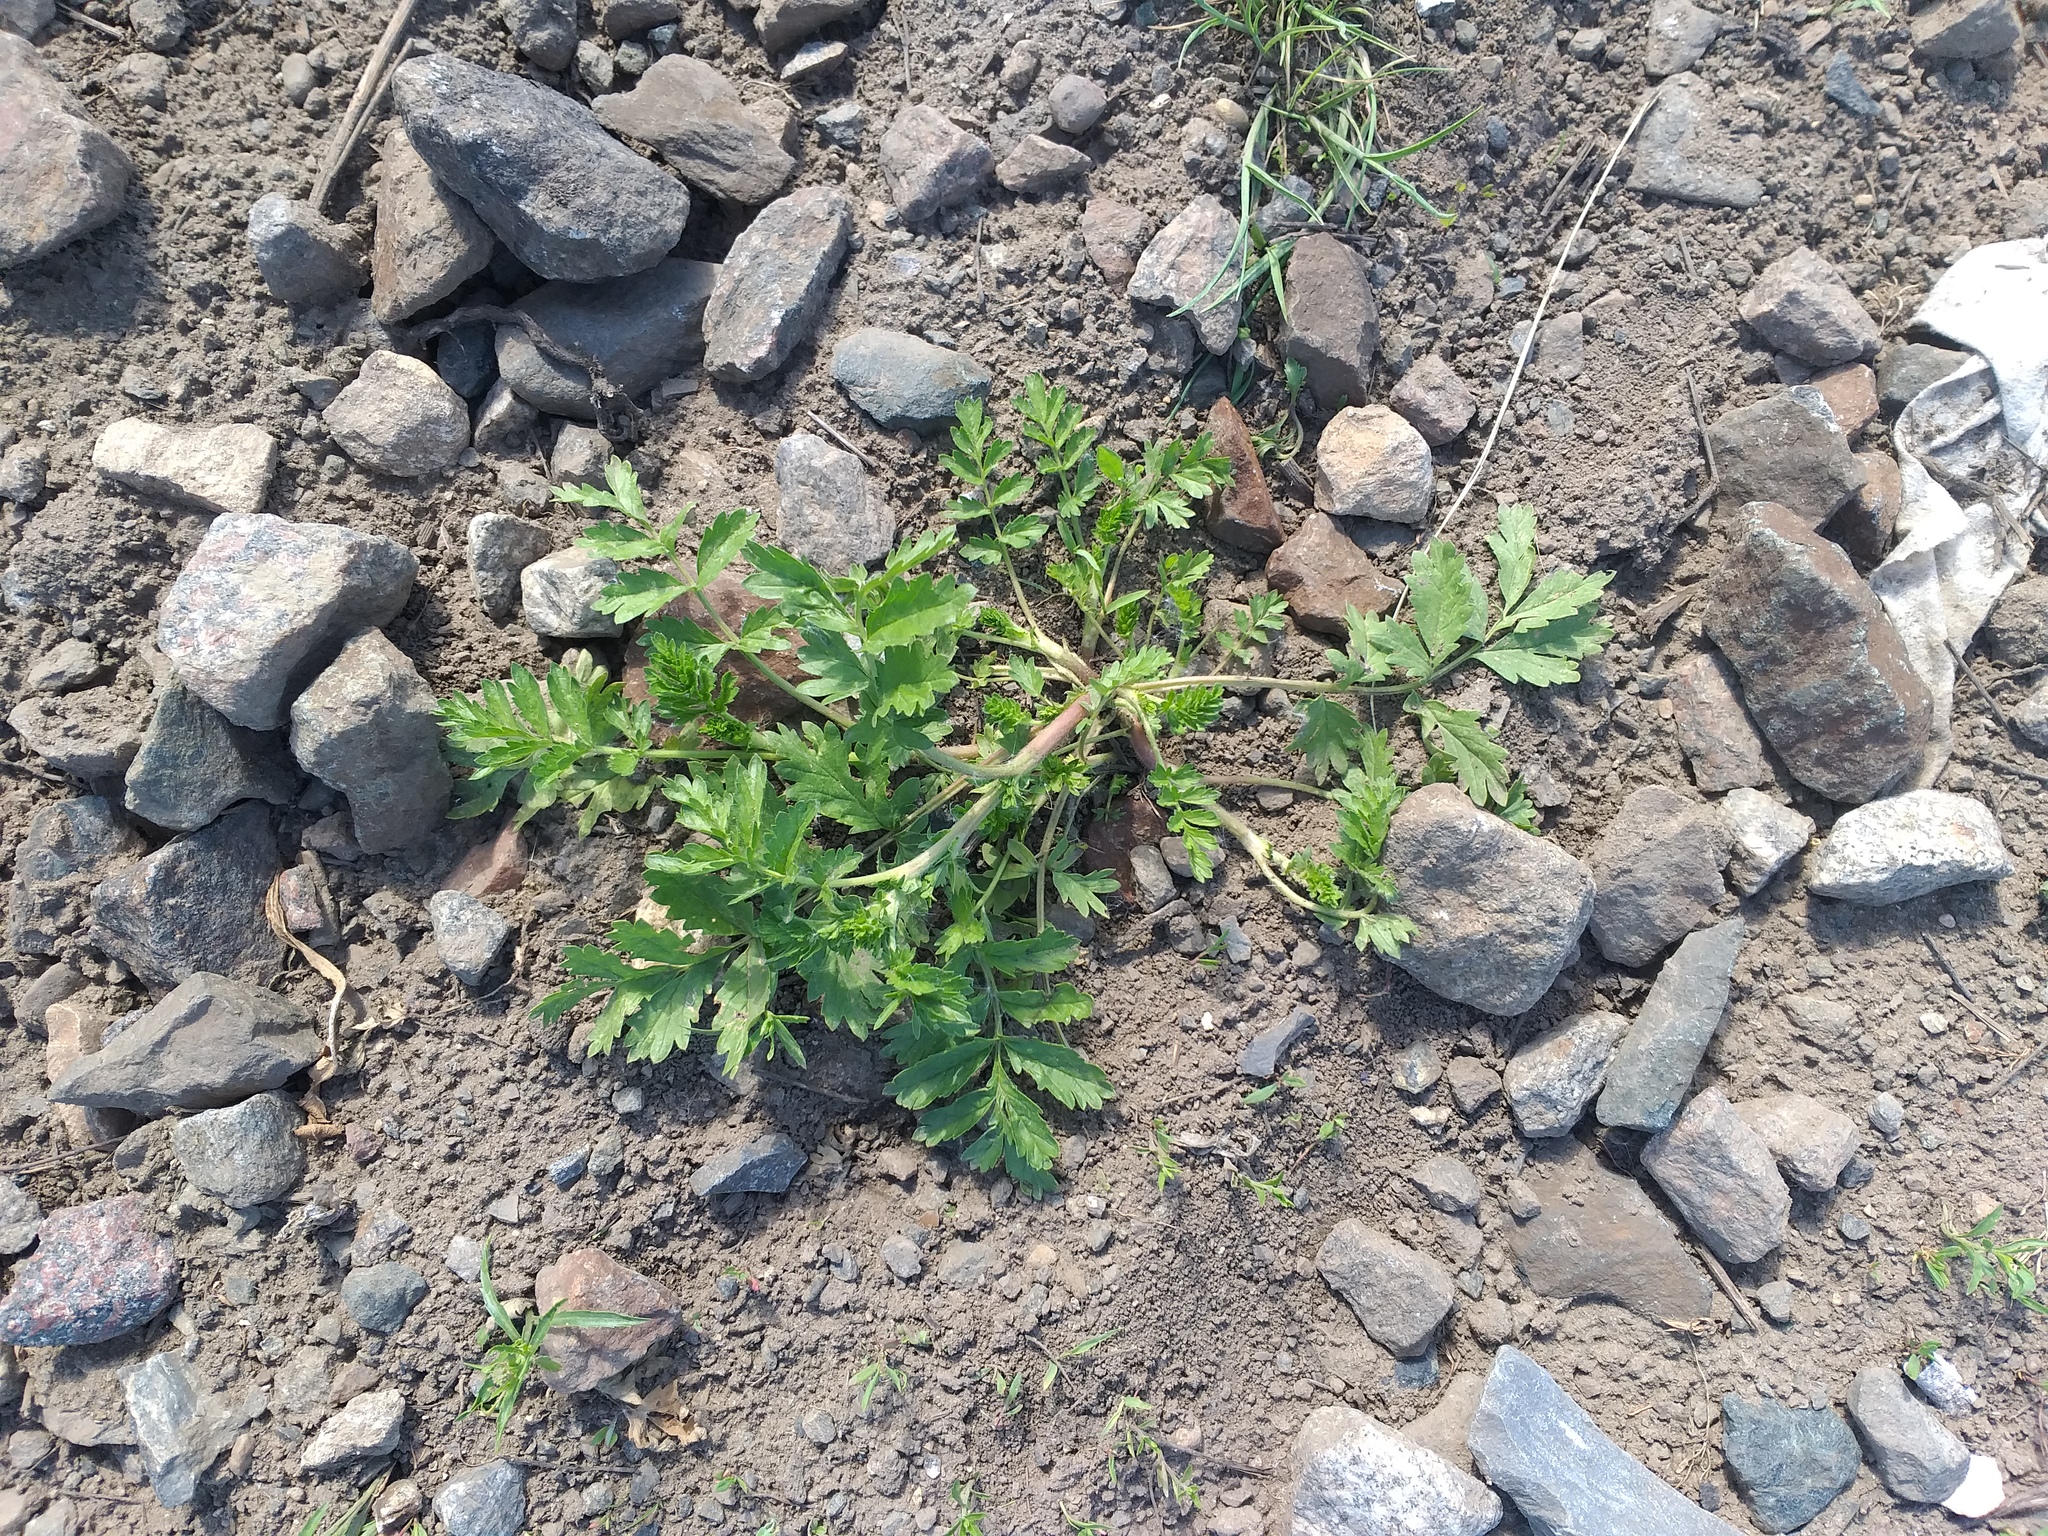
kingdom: Plantae
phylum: Tracheophyta
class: Magnoliopsida
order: Rosales
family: Rosaceae
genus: Potentilla
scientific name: Potentilla supina
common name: Prostrate cinquefoil
